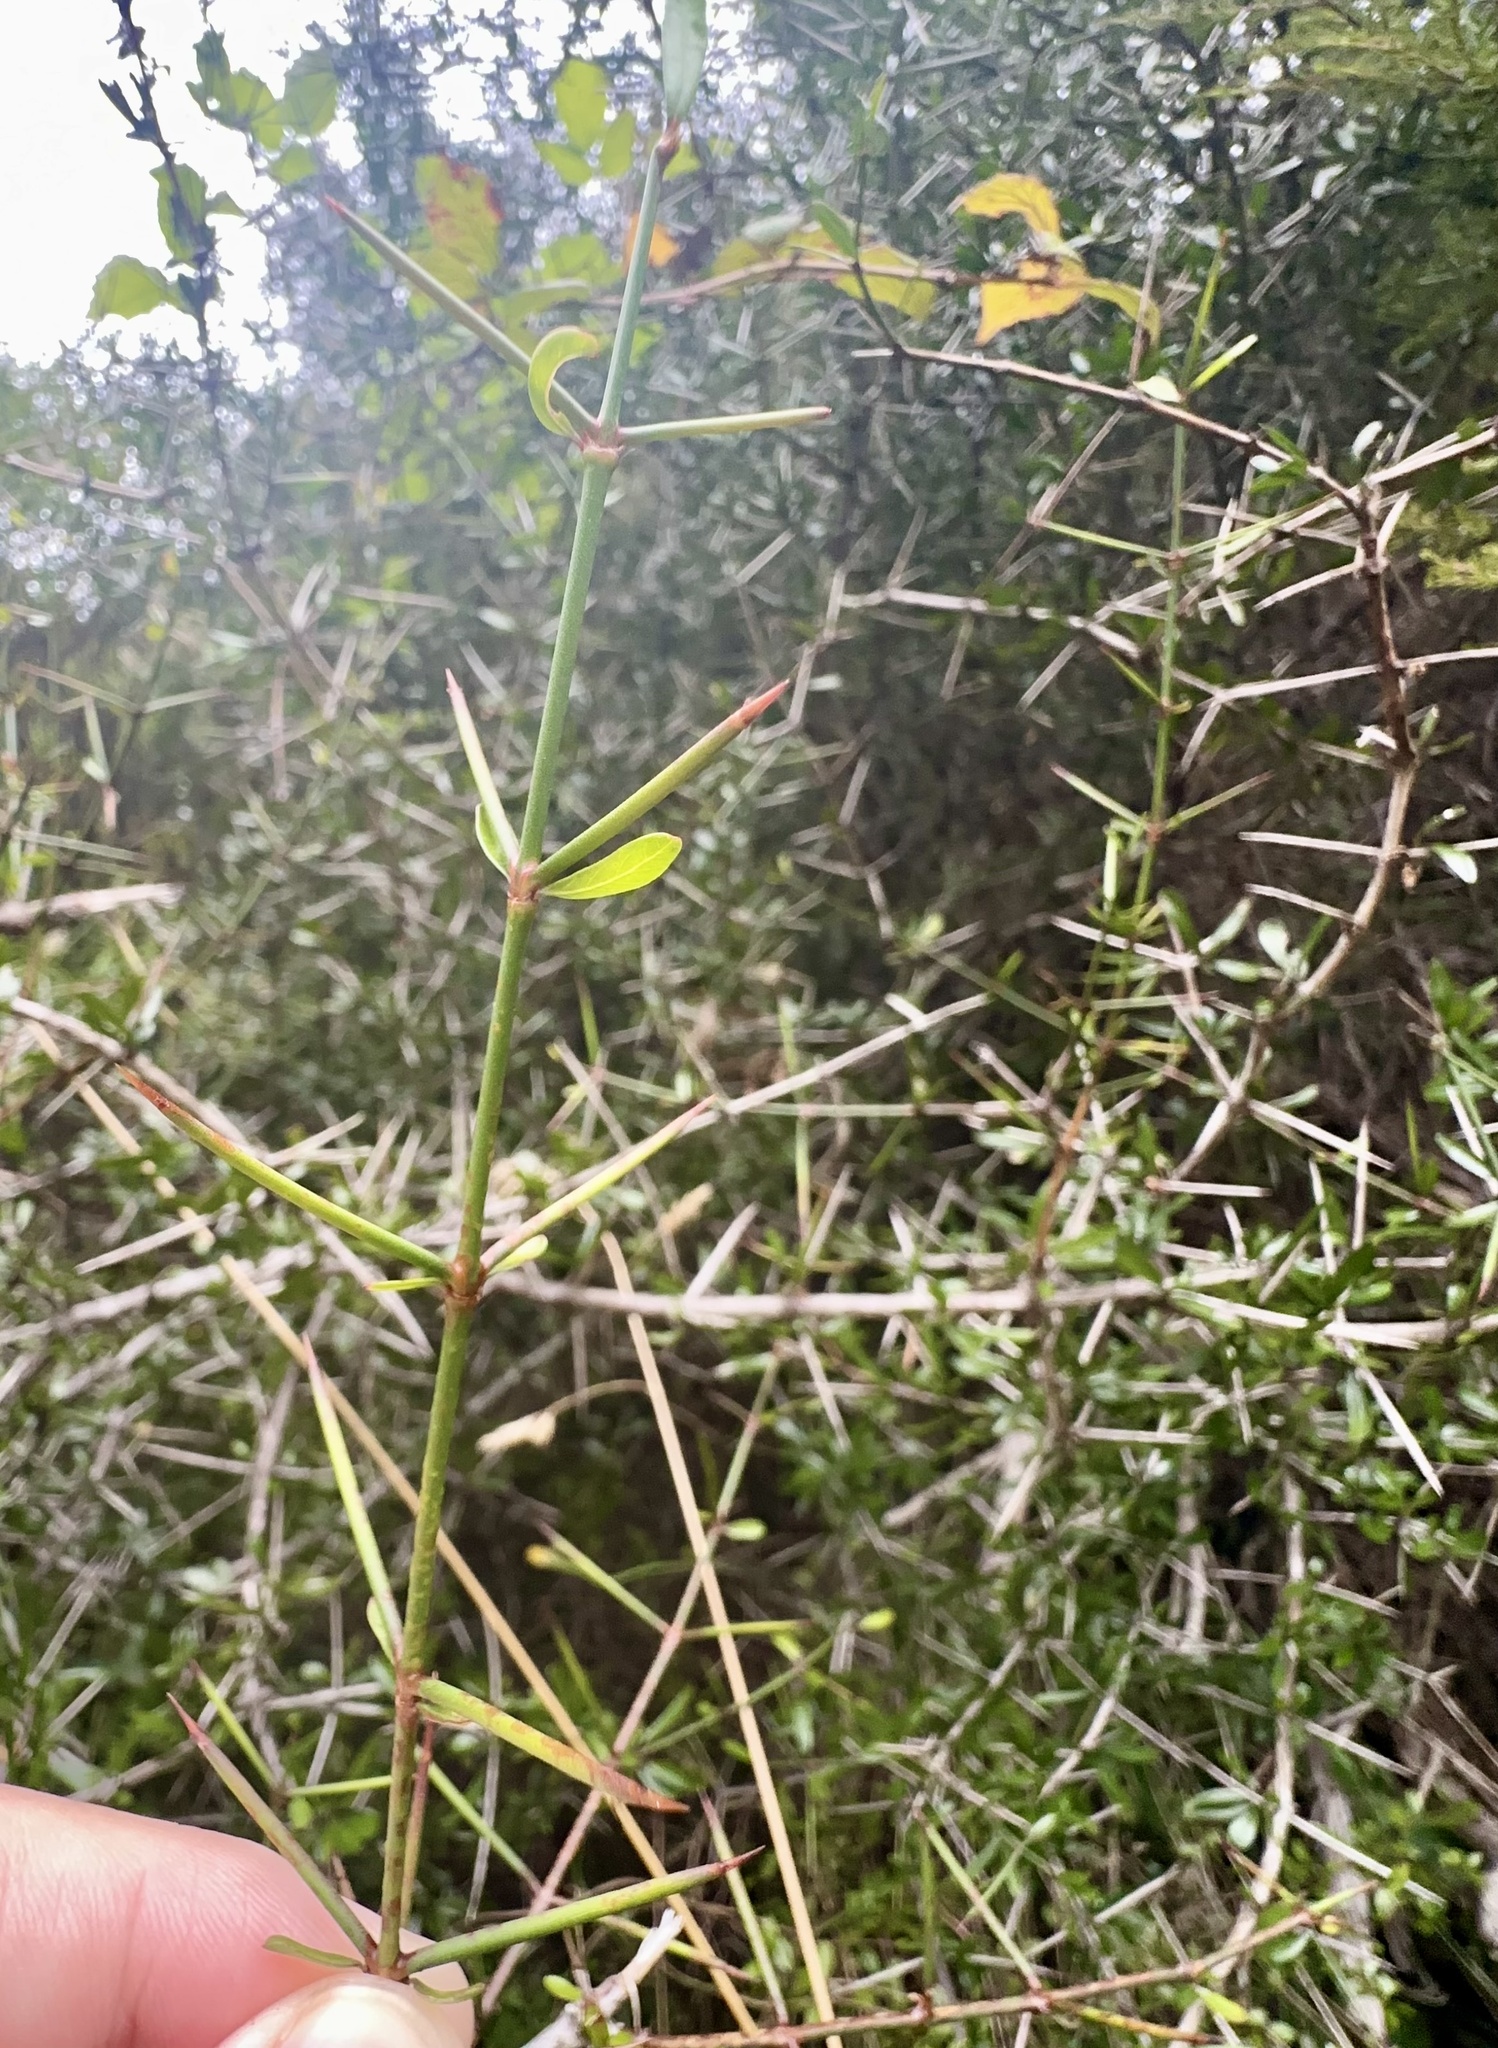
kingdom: Plantae
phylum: Tracheophyta
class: Magnoliopsida
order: Rosales
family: Rhamnaceae
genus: Discaria
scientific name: Discaria toumatou
